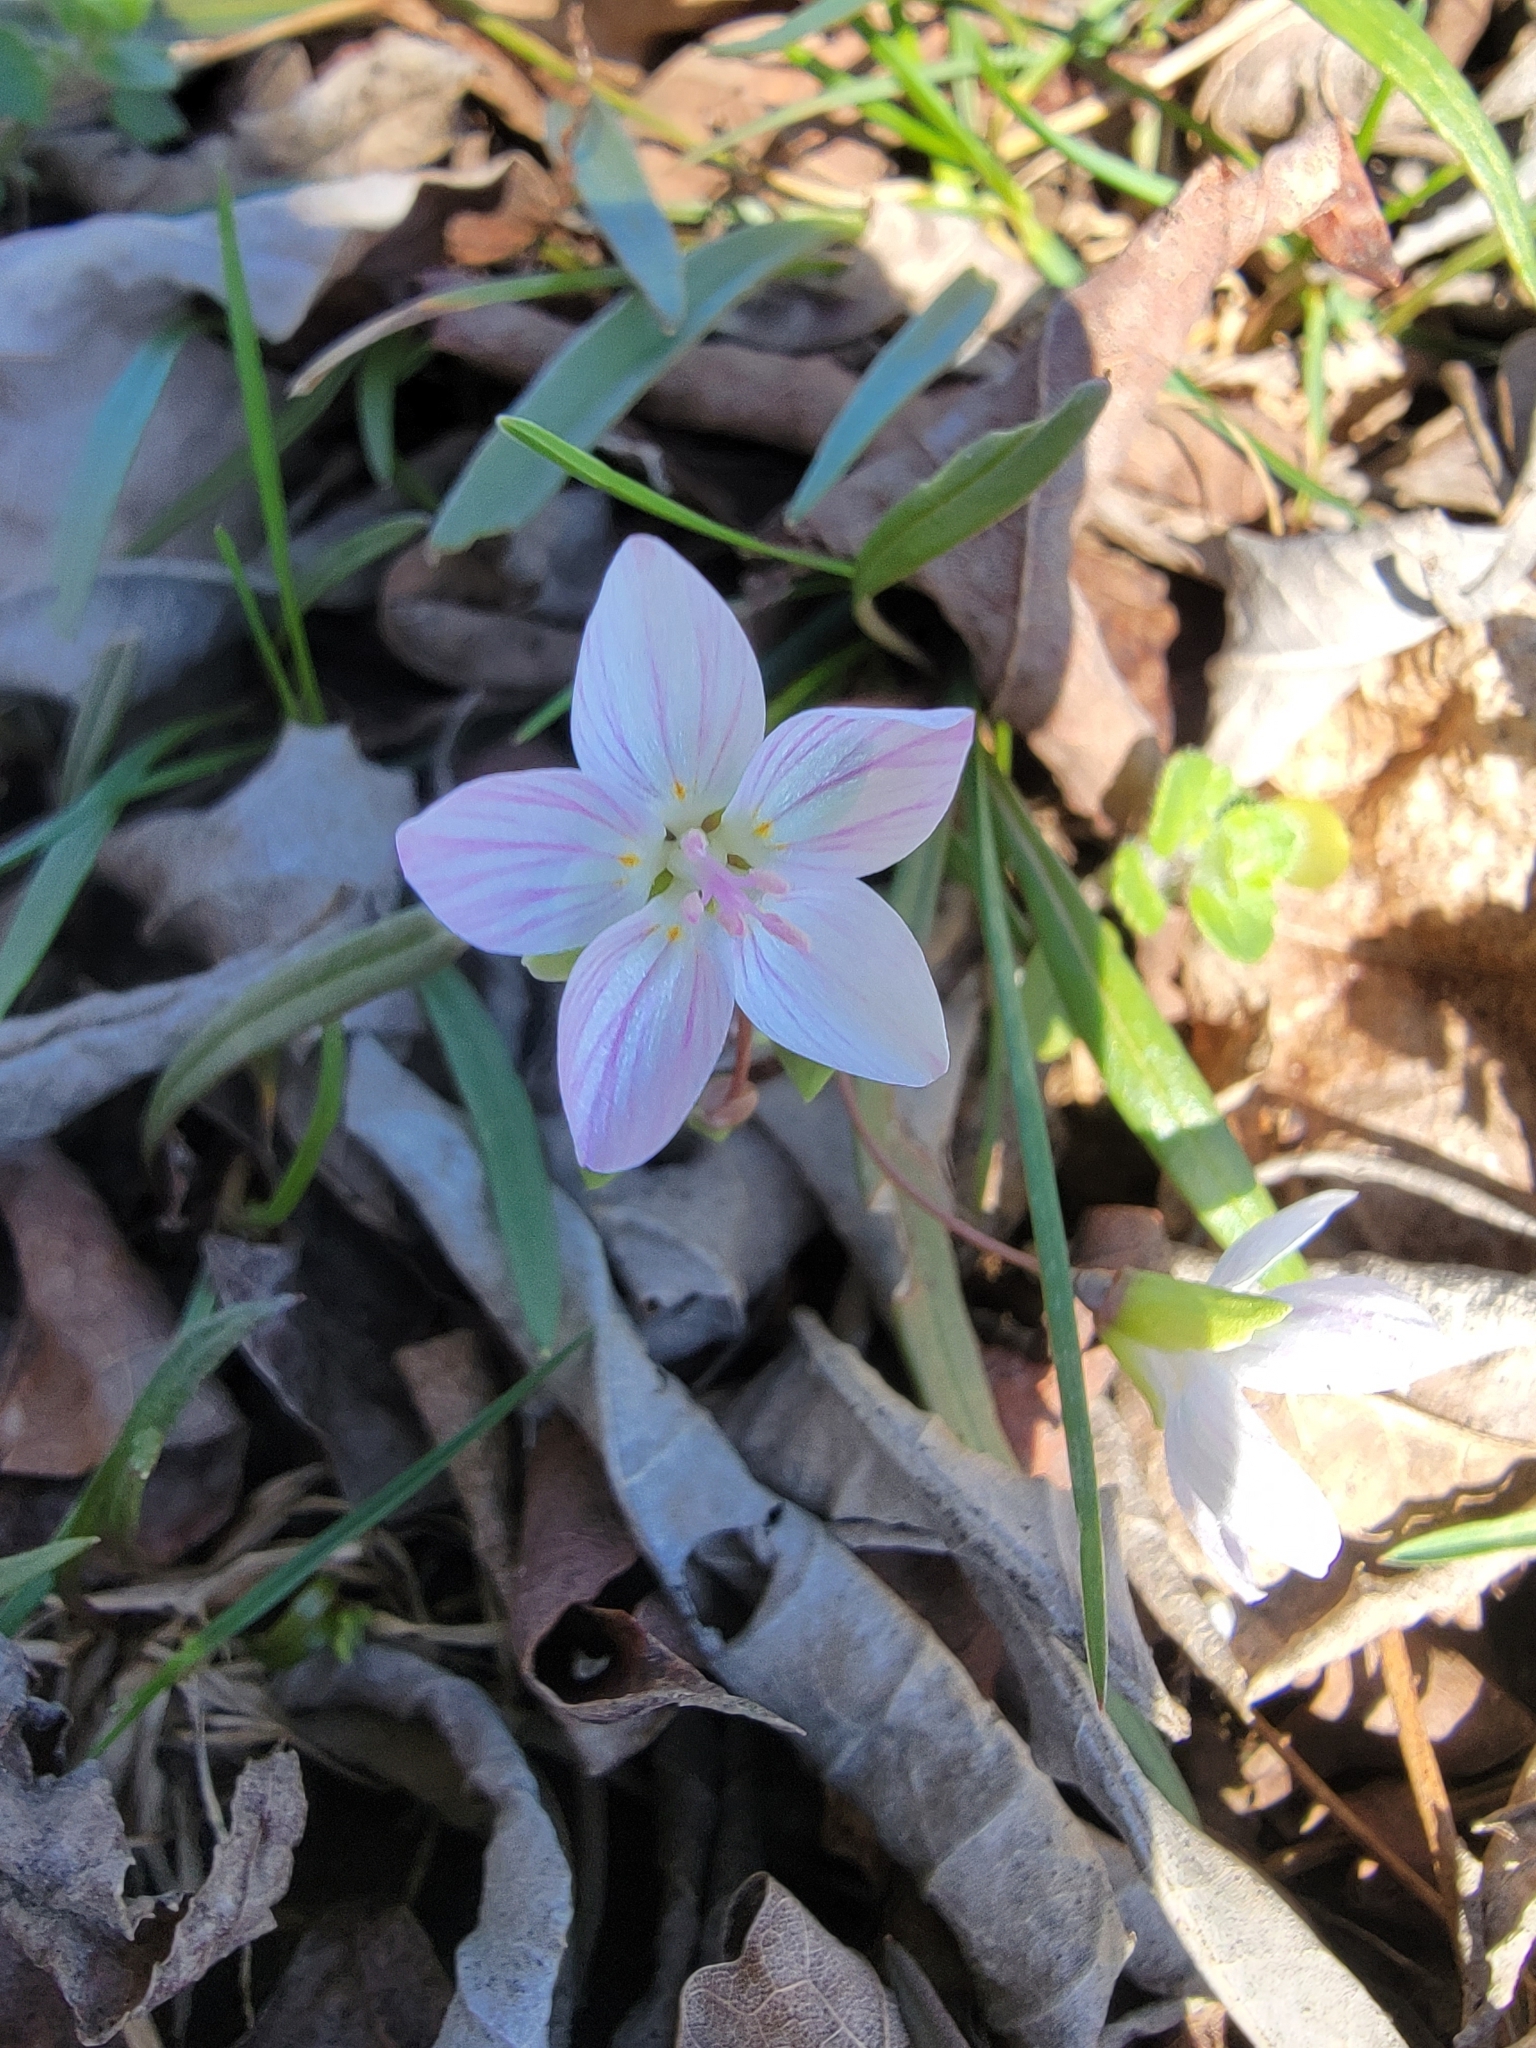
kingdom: Plantae
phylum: Tracheophyta
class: Magnoliopsida
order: Caryophyllales
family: Montiaceae
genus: Claytonia
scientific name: Claytonia virginica
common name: Virginia springbeauty
